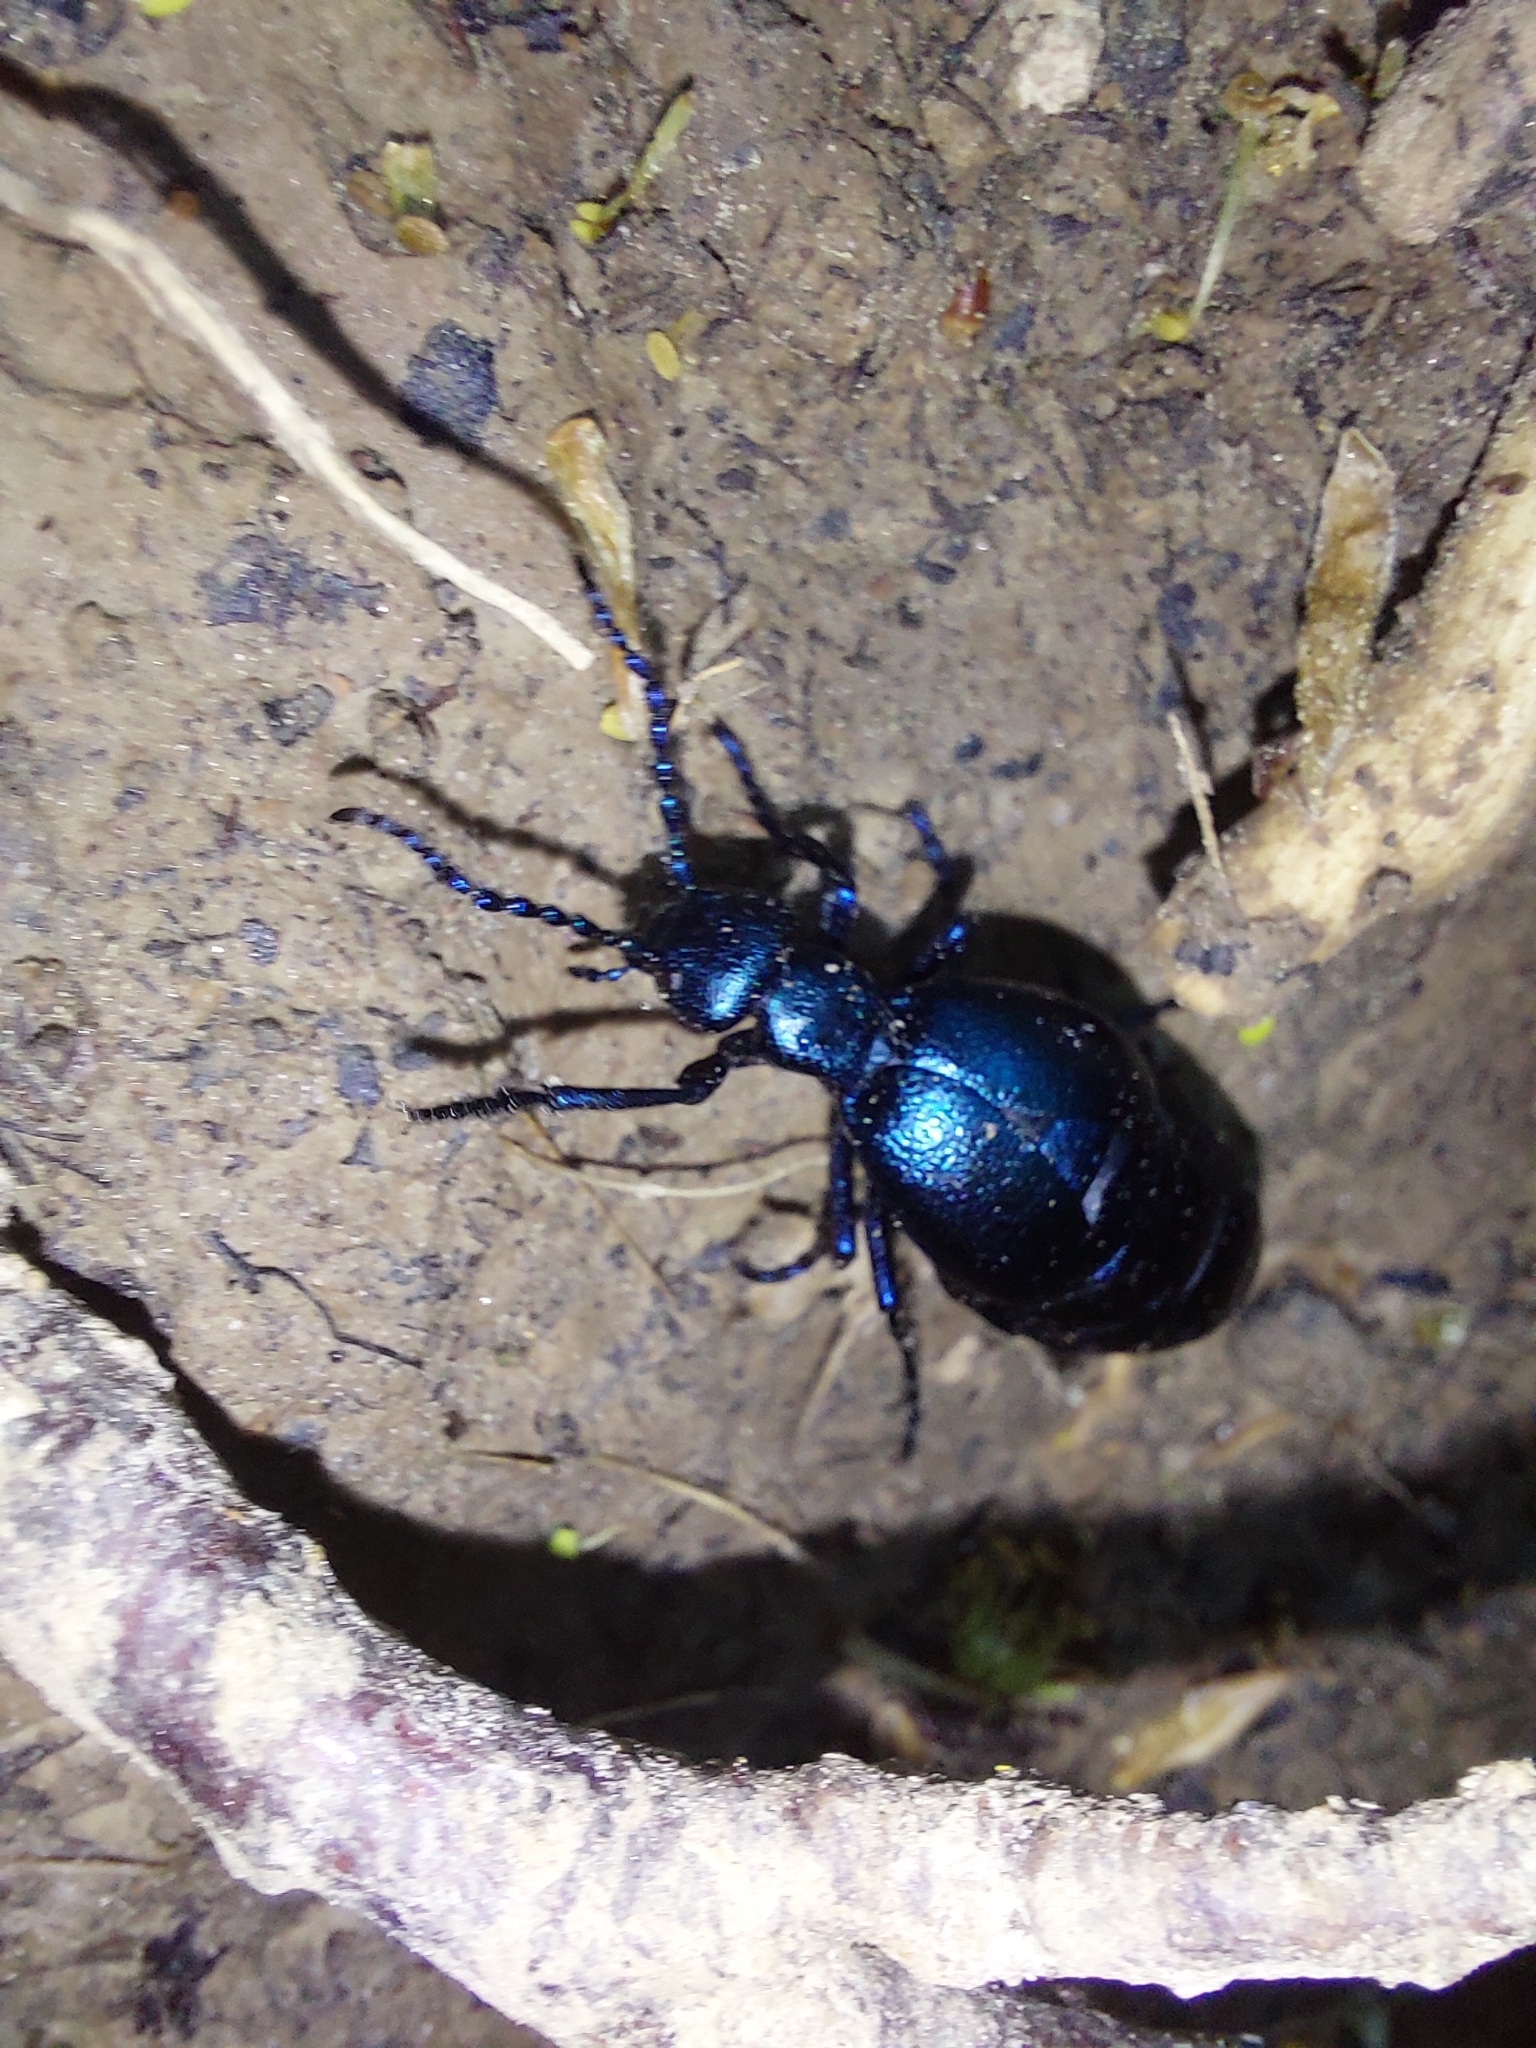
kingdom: Animalia
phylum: Arthropoda
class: Insecta
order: Coleoptera
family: Meloidae
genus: Meloe
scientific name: Meloe violaceus
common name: Violet oil-beetle
